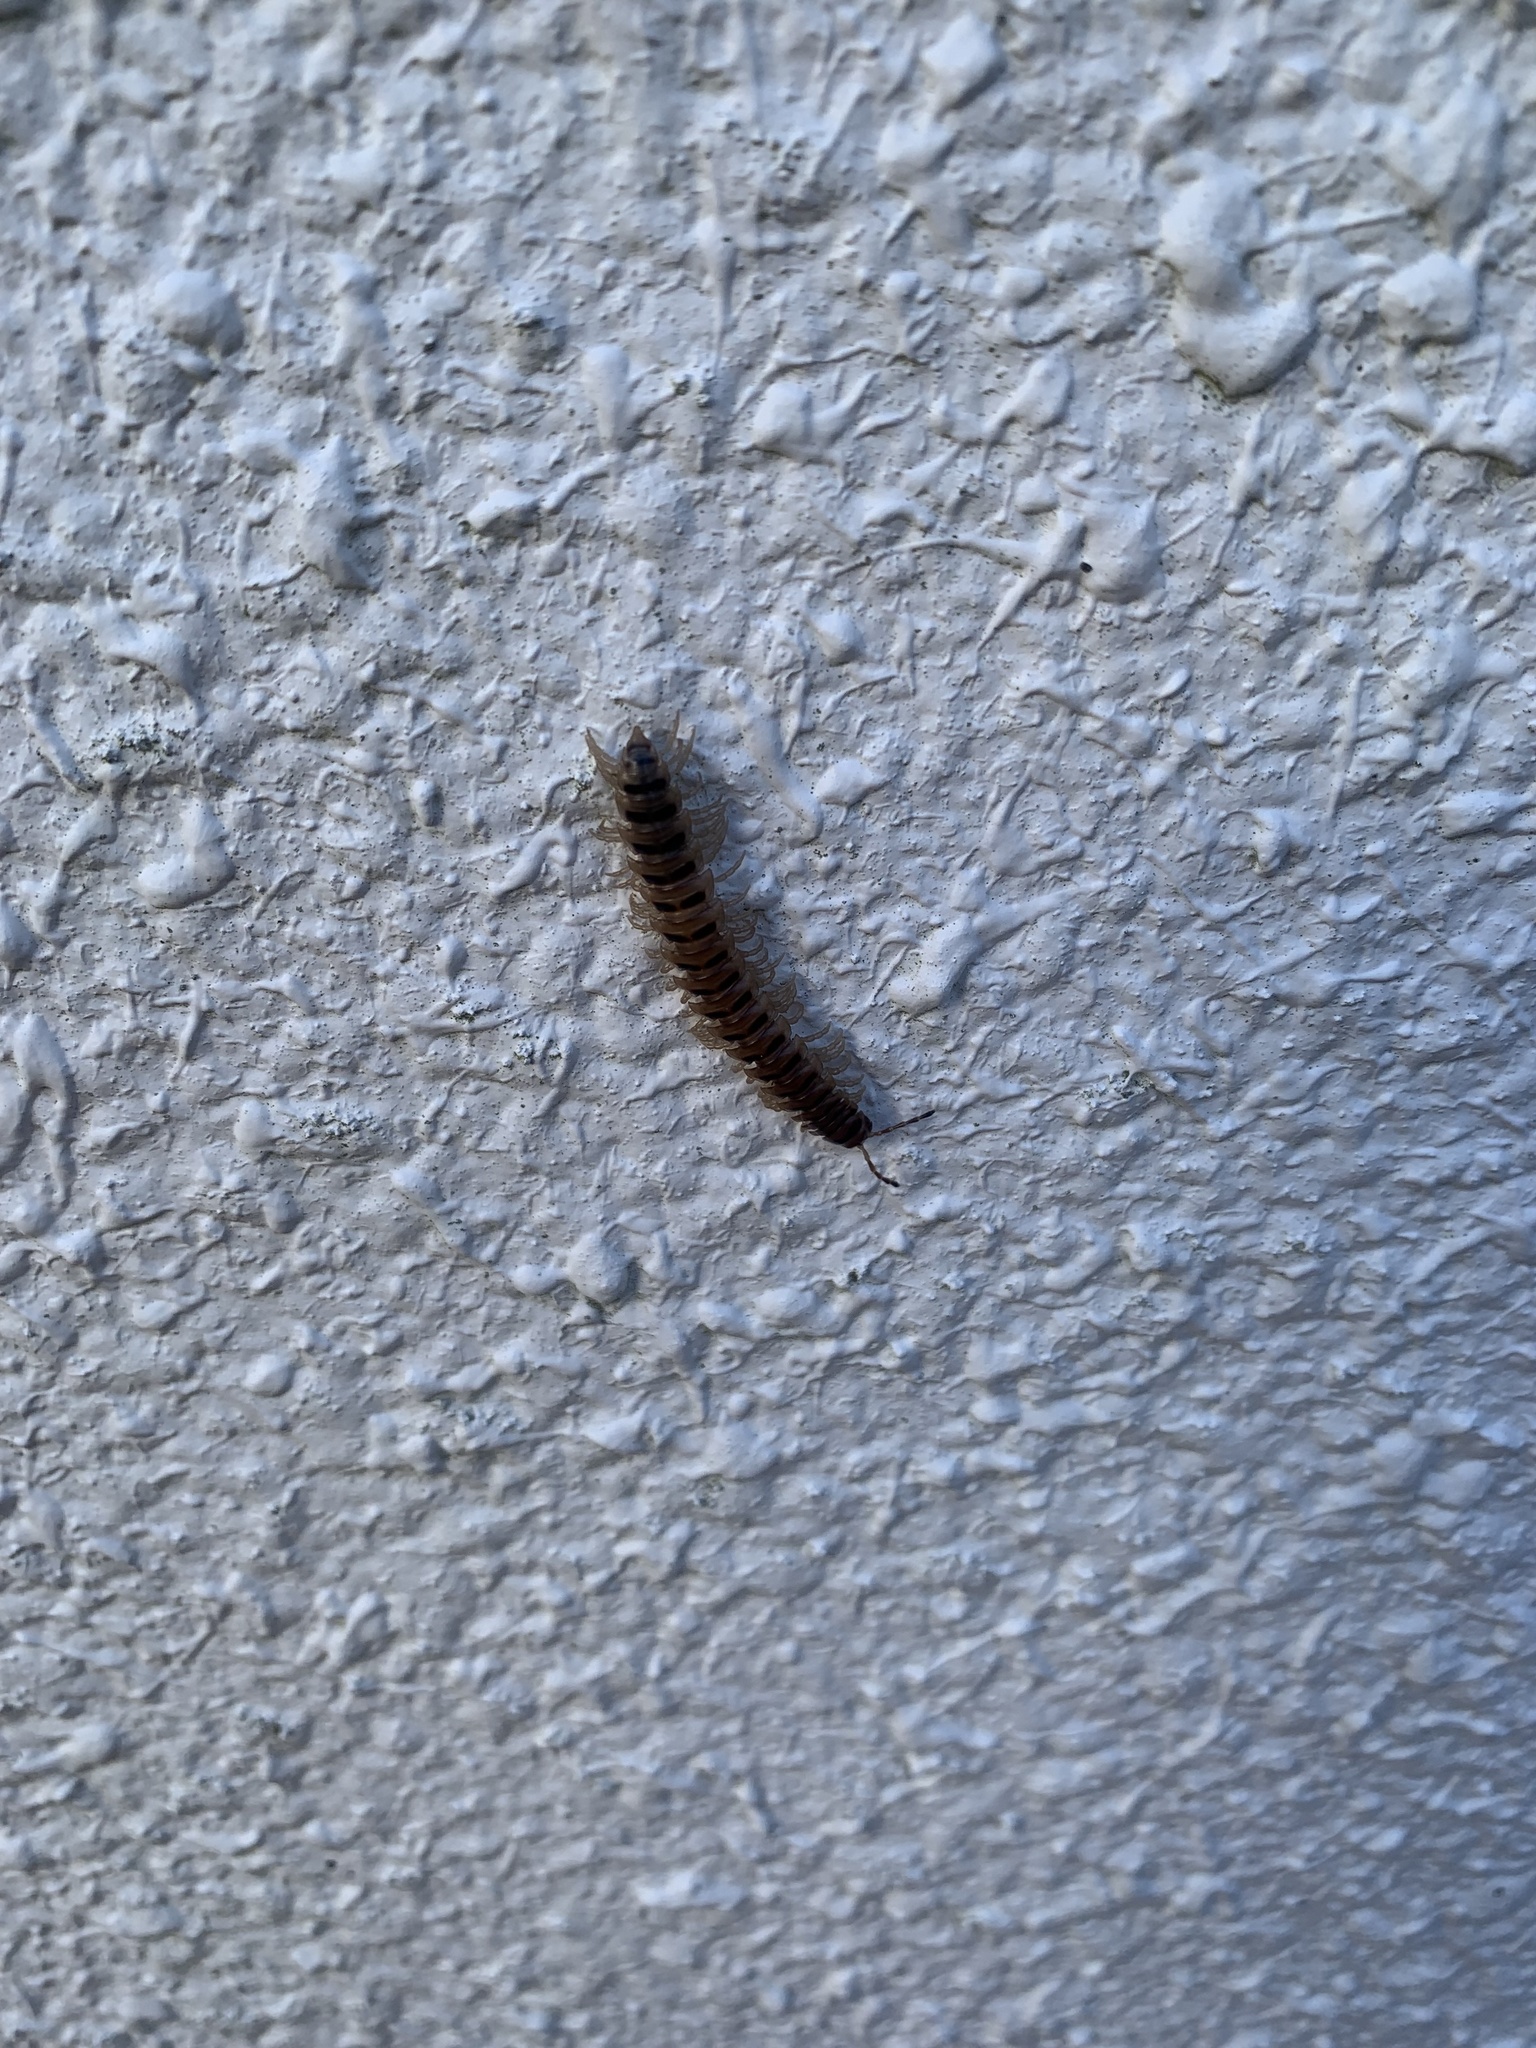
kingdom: Animalia
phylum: Arthropoda
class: Diplopoda
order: Polydesmida
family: Paradoxosomatidae
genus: Chamberlinius
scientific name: Chamberlinius hualienensis
